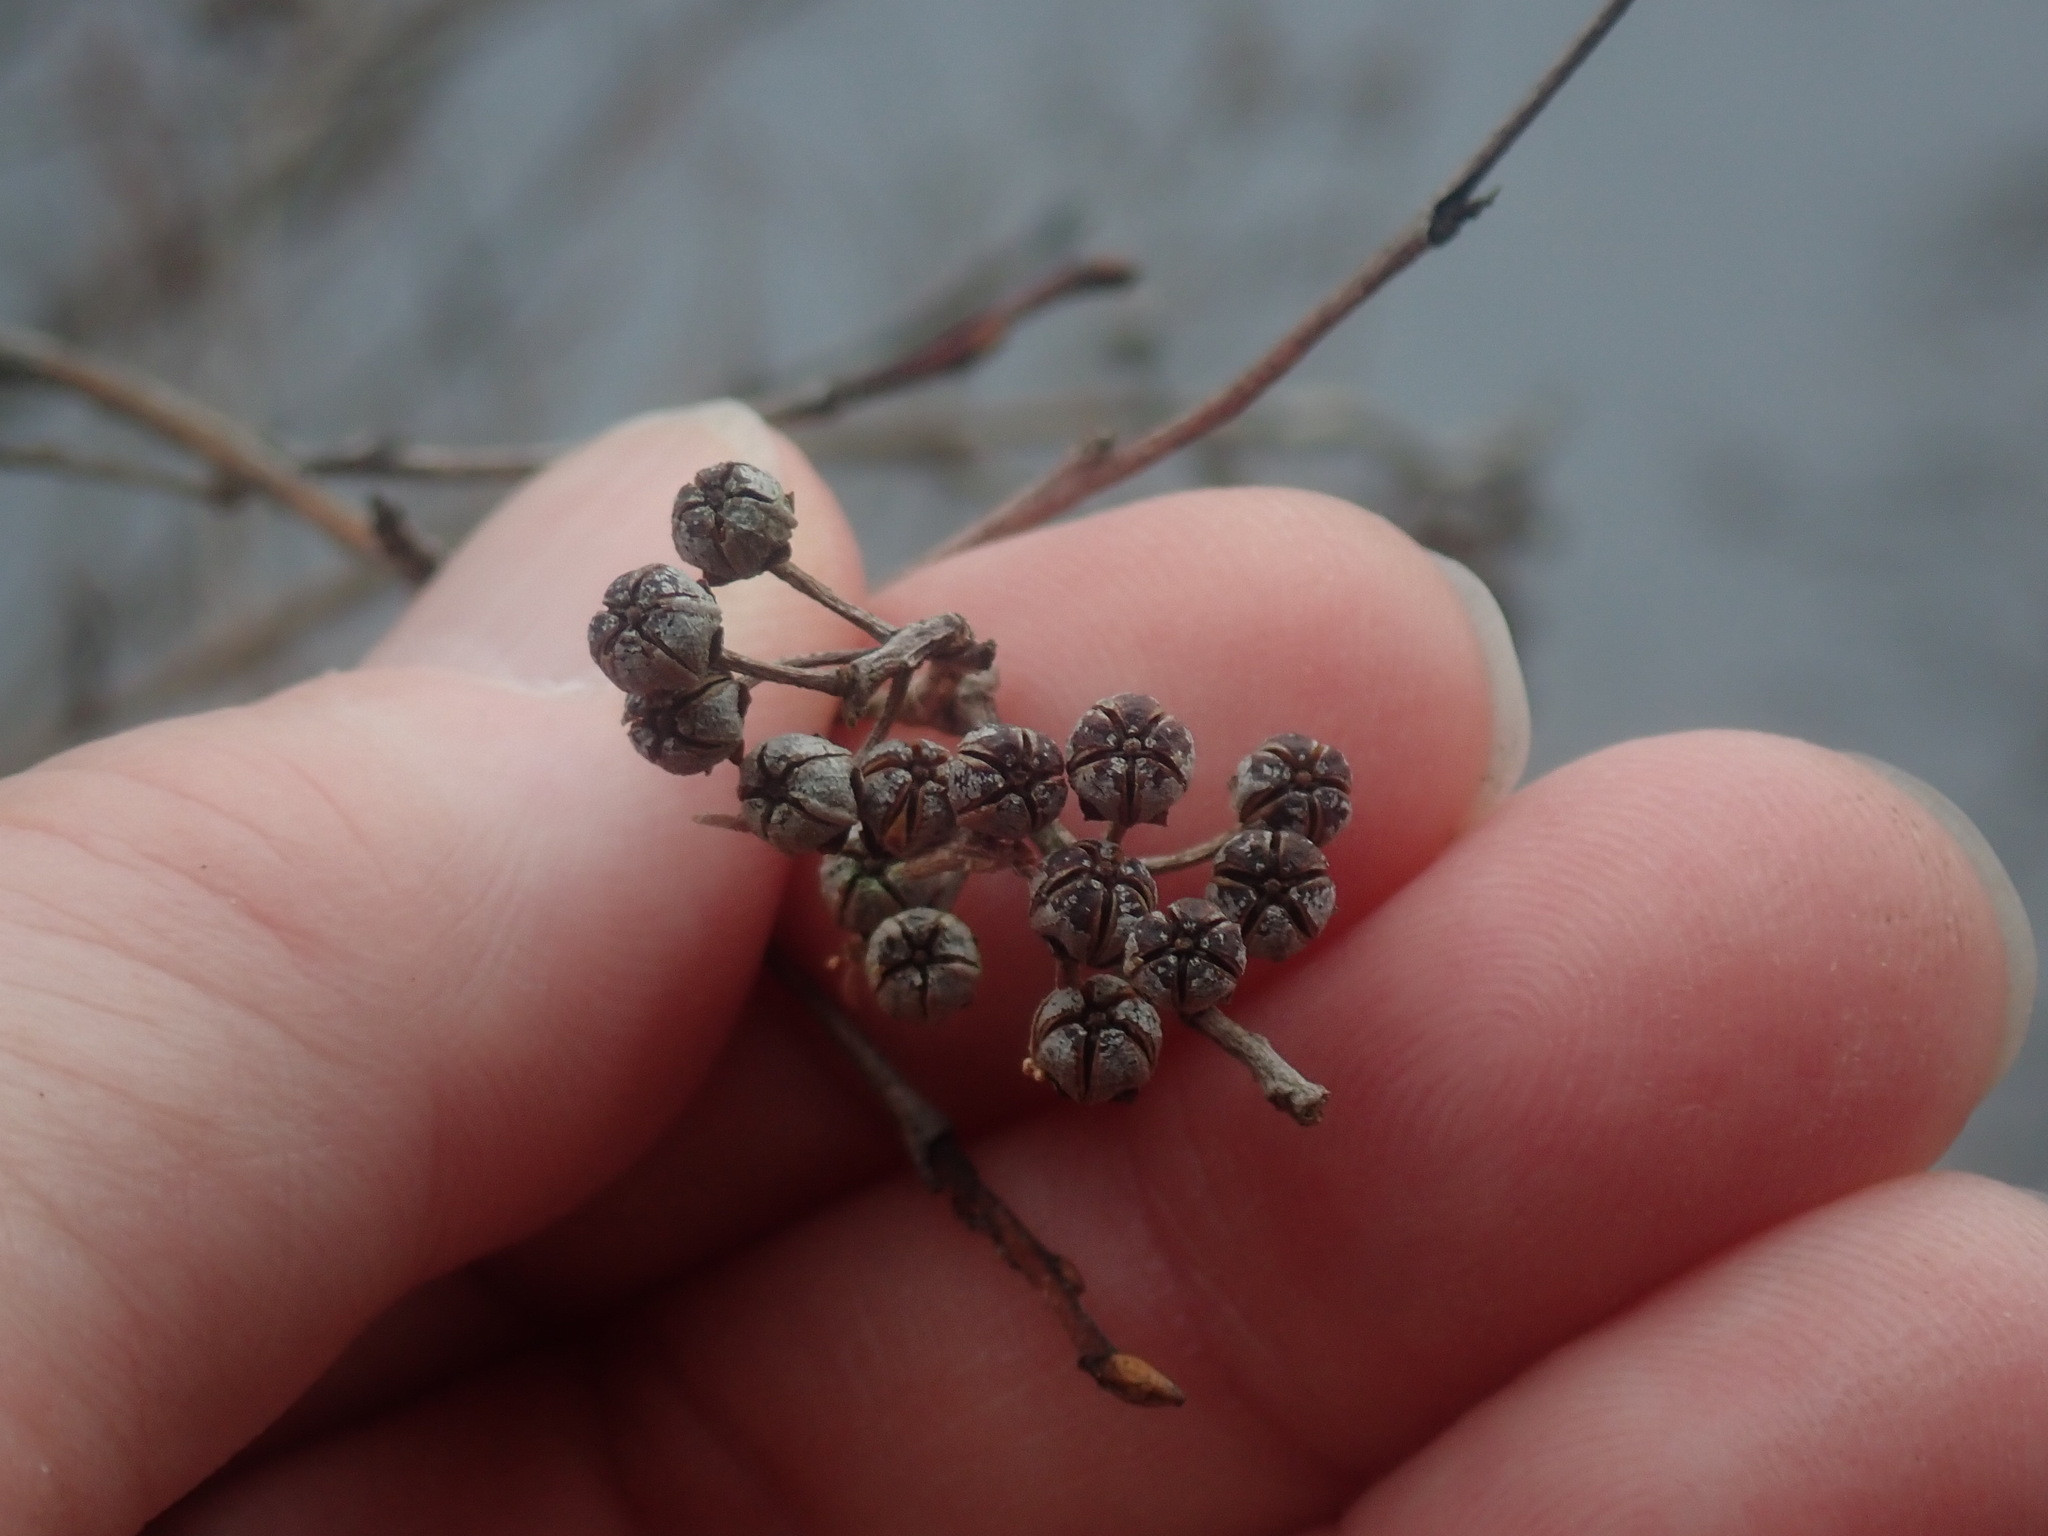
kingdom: Plantae
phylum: Tracheophyta
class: Magnoliopsida
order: Ericales
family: Ericaceae
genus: Lyonia
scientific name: Lyonia ligustrina
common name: Maleberry
